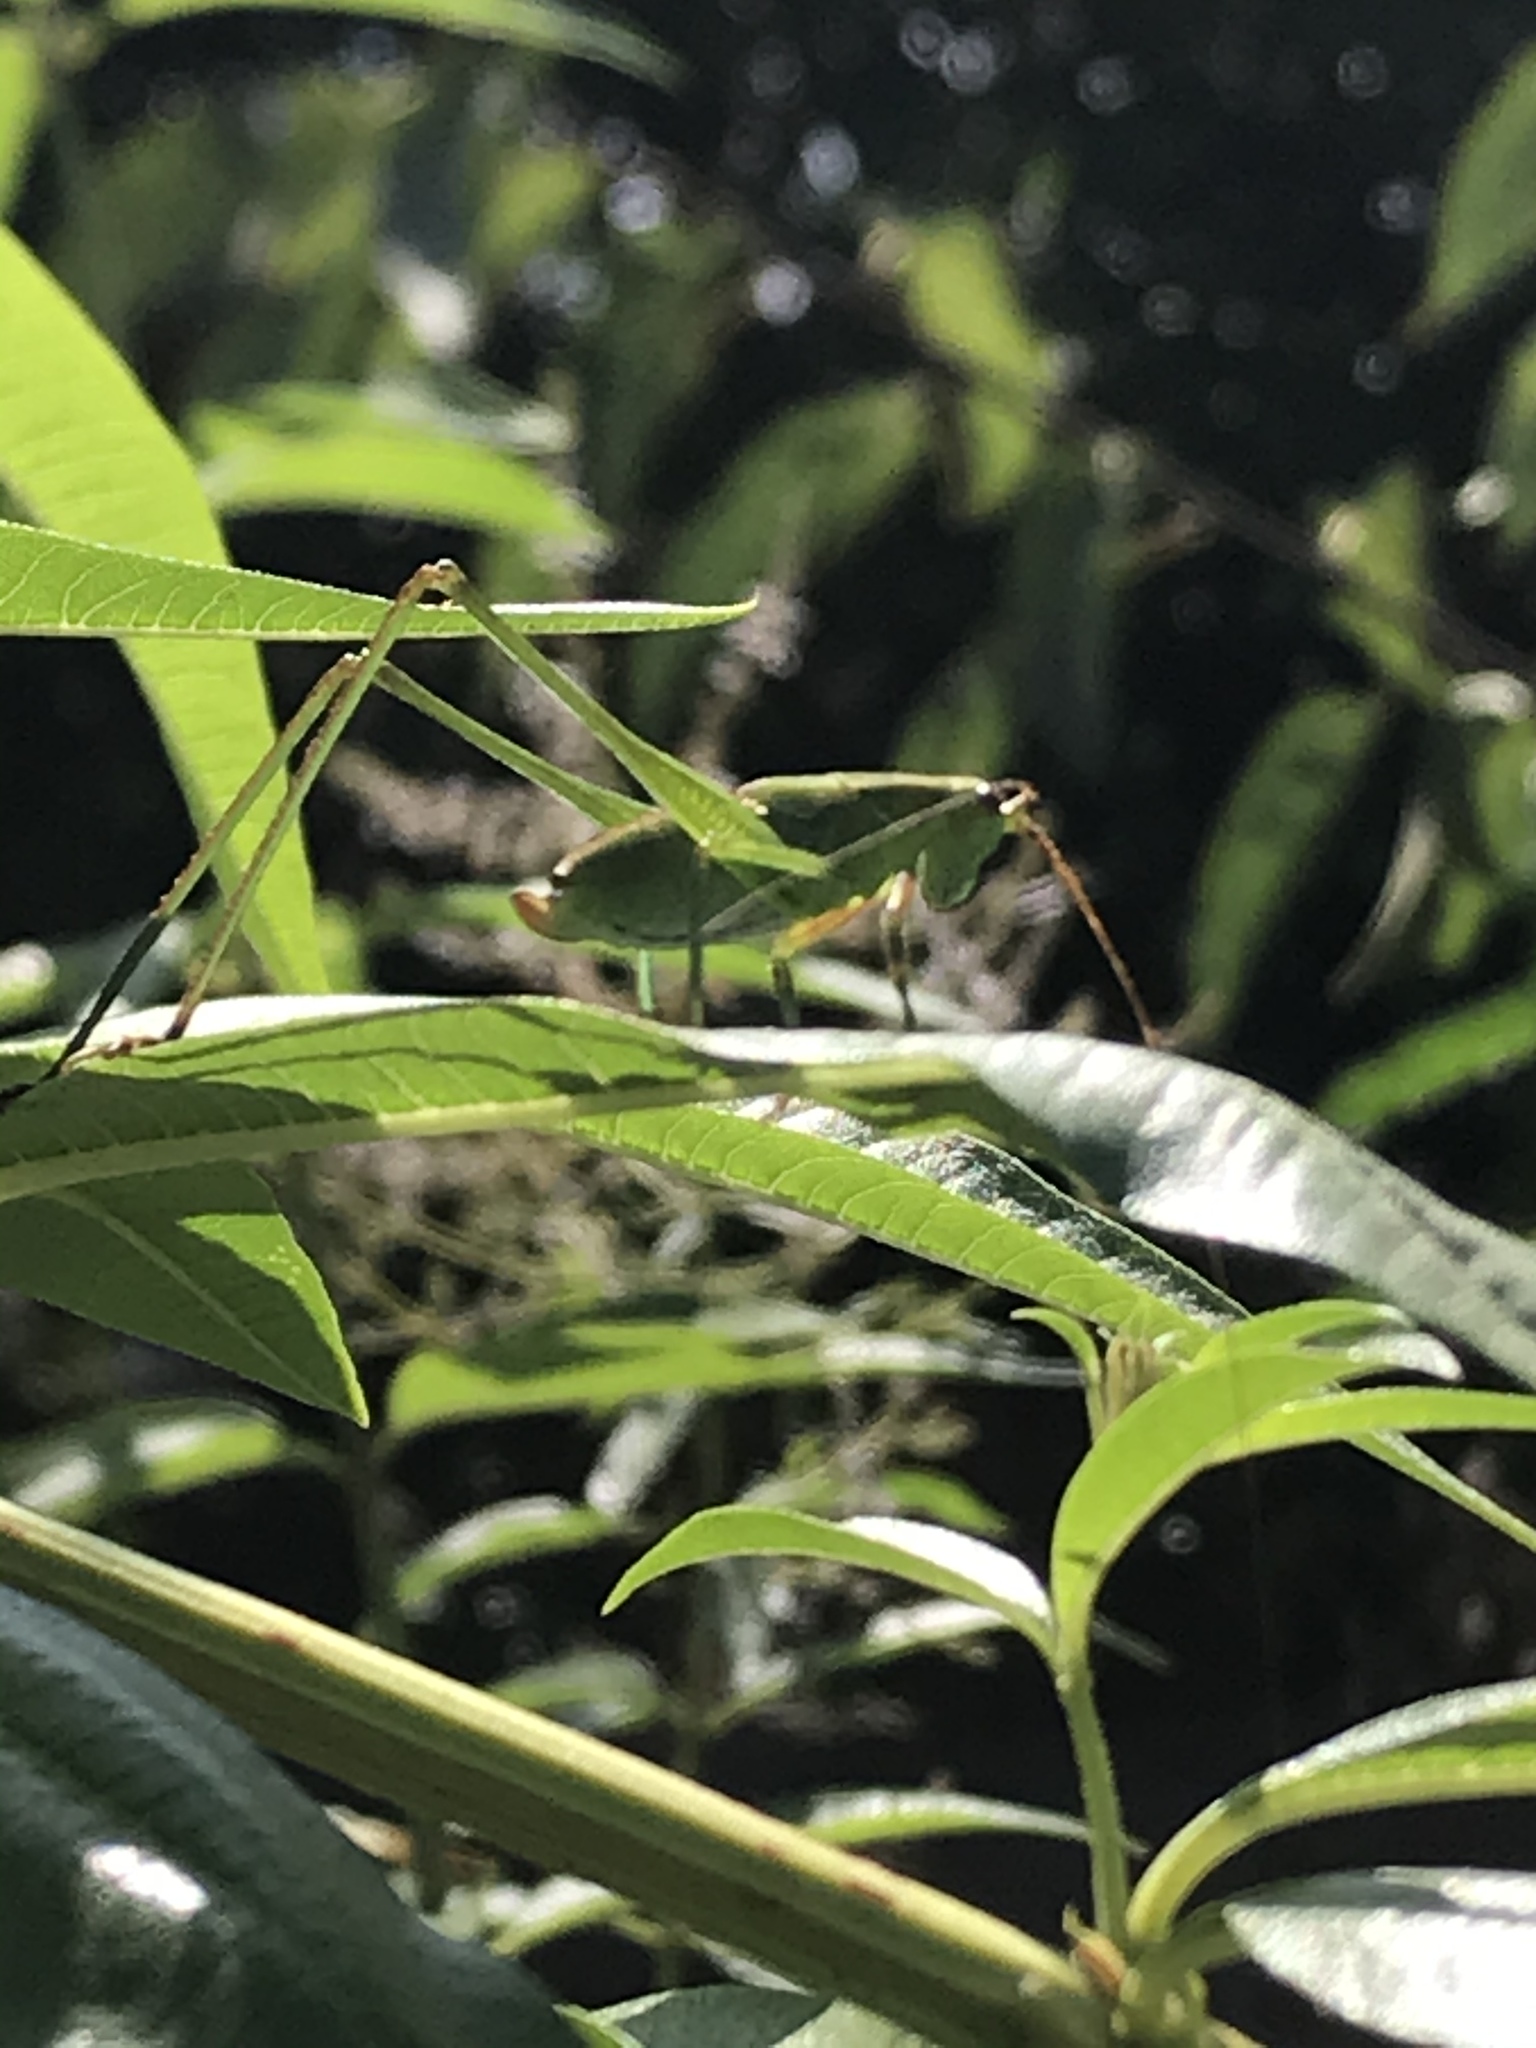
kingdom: Animalia
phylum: Arthropoda
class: Insecta
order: Orthoptera
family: Tettigoniidae
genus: Scudderia
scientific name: Scudderia
